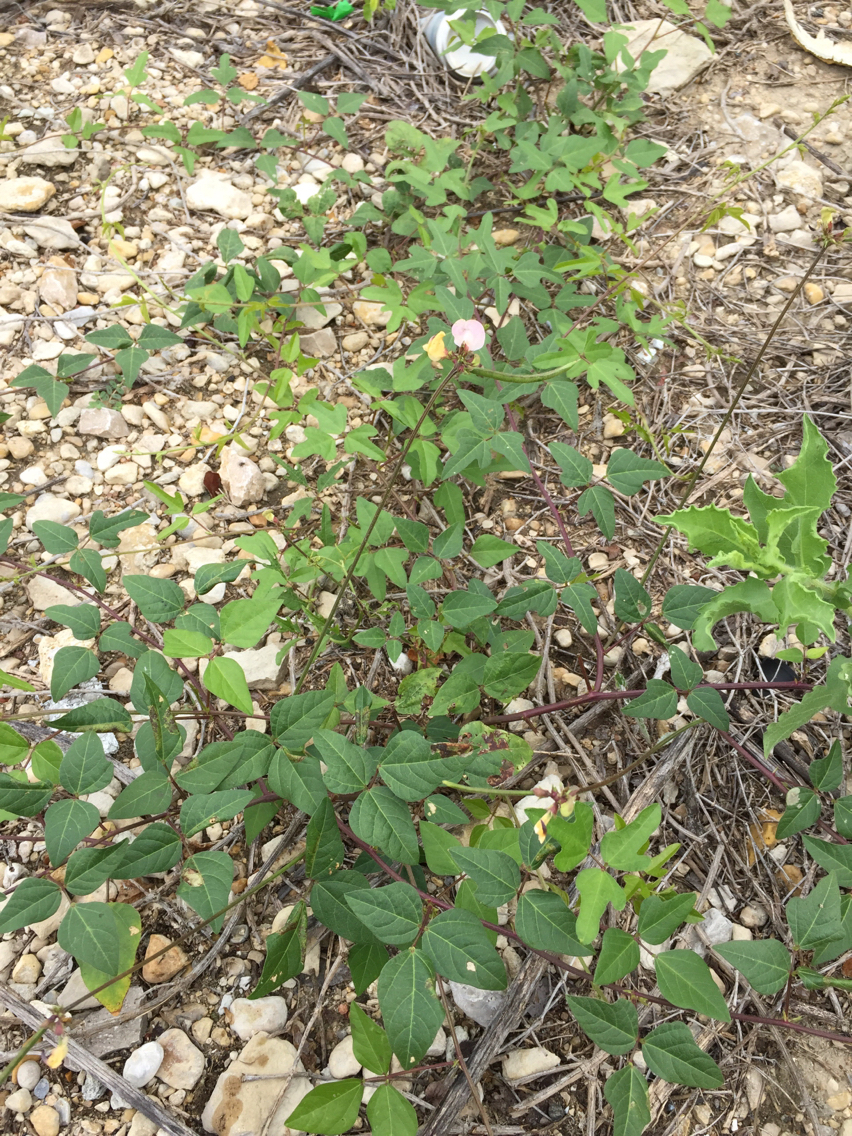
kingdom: Plantae
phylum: Tracheophyta
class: Magnoliopsida
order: Fabales
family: Fabaceae
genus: Strophostyles
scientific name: Strophostyles helvola
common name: Trailing wild bean
